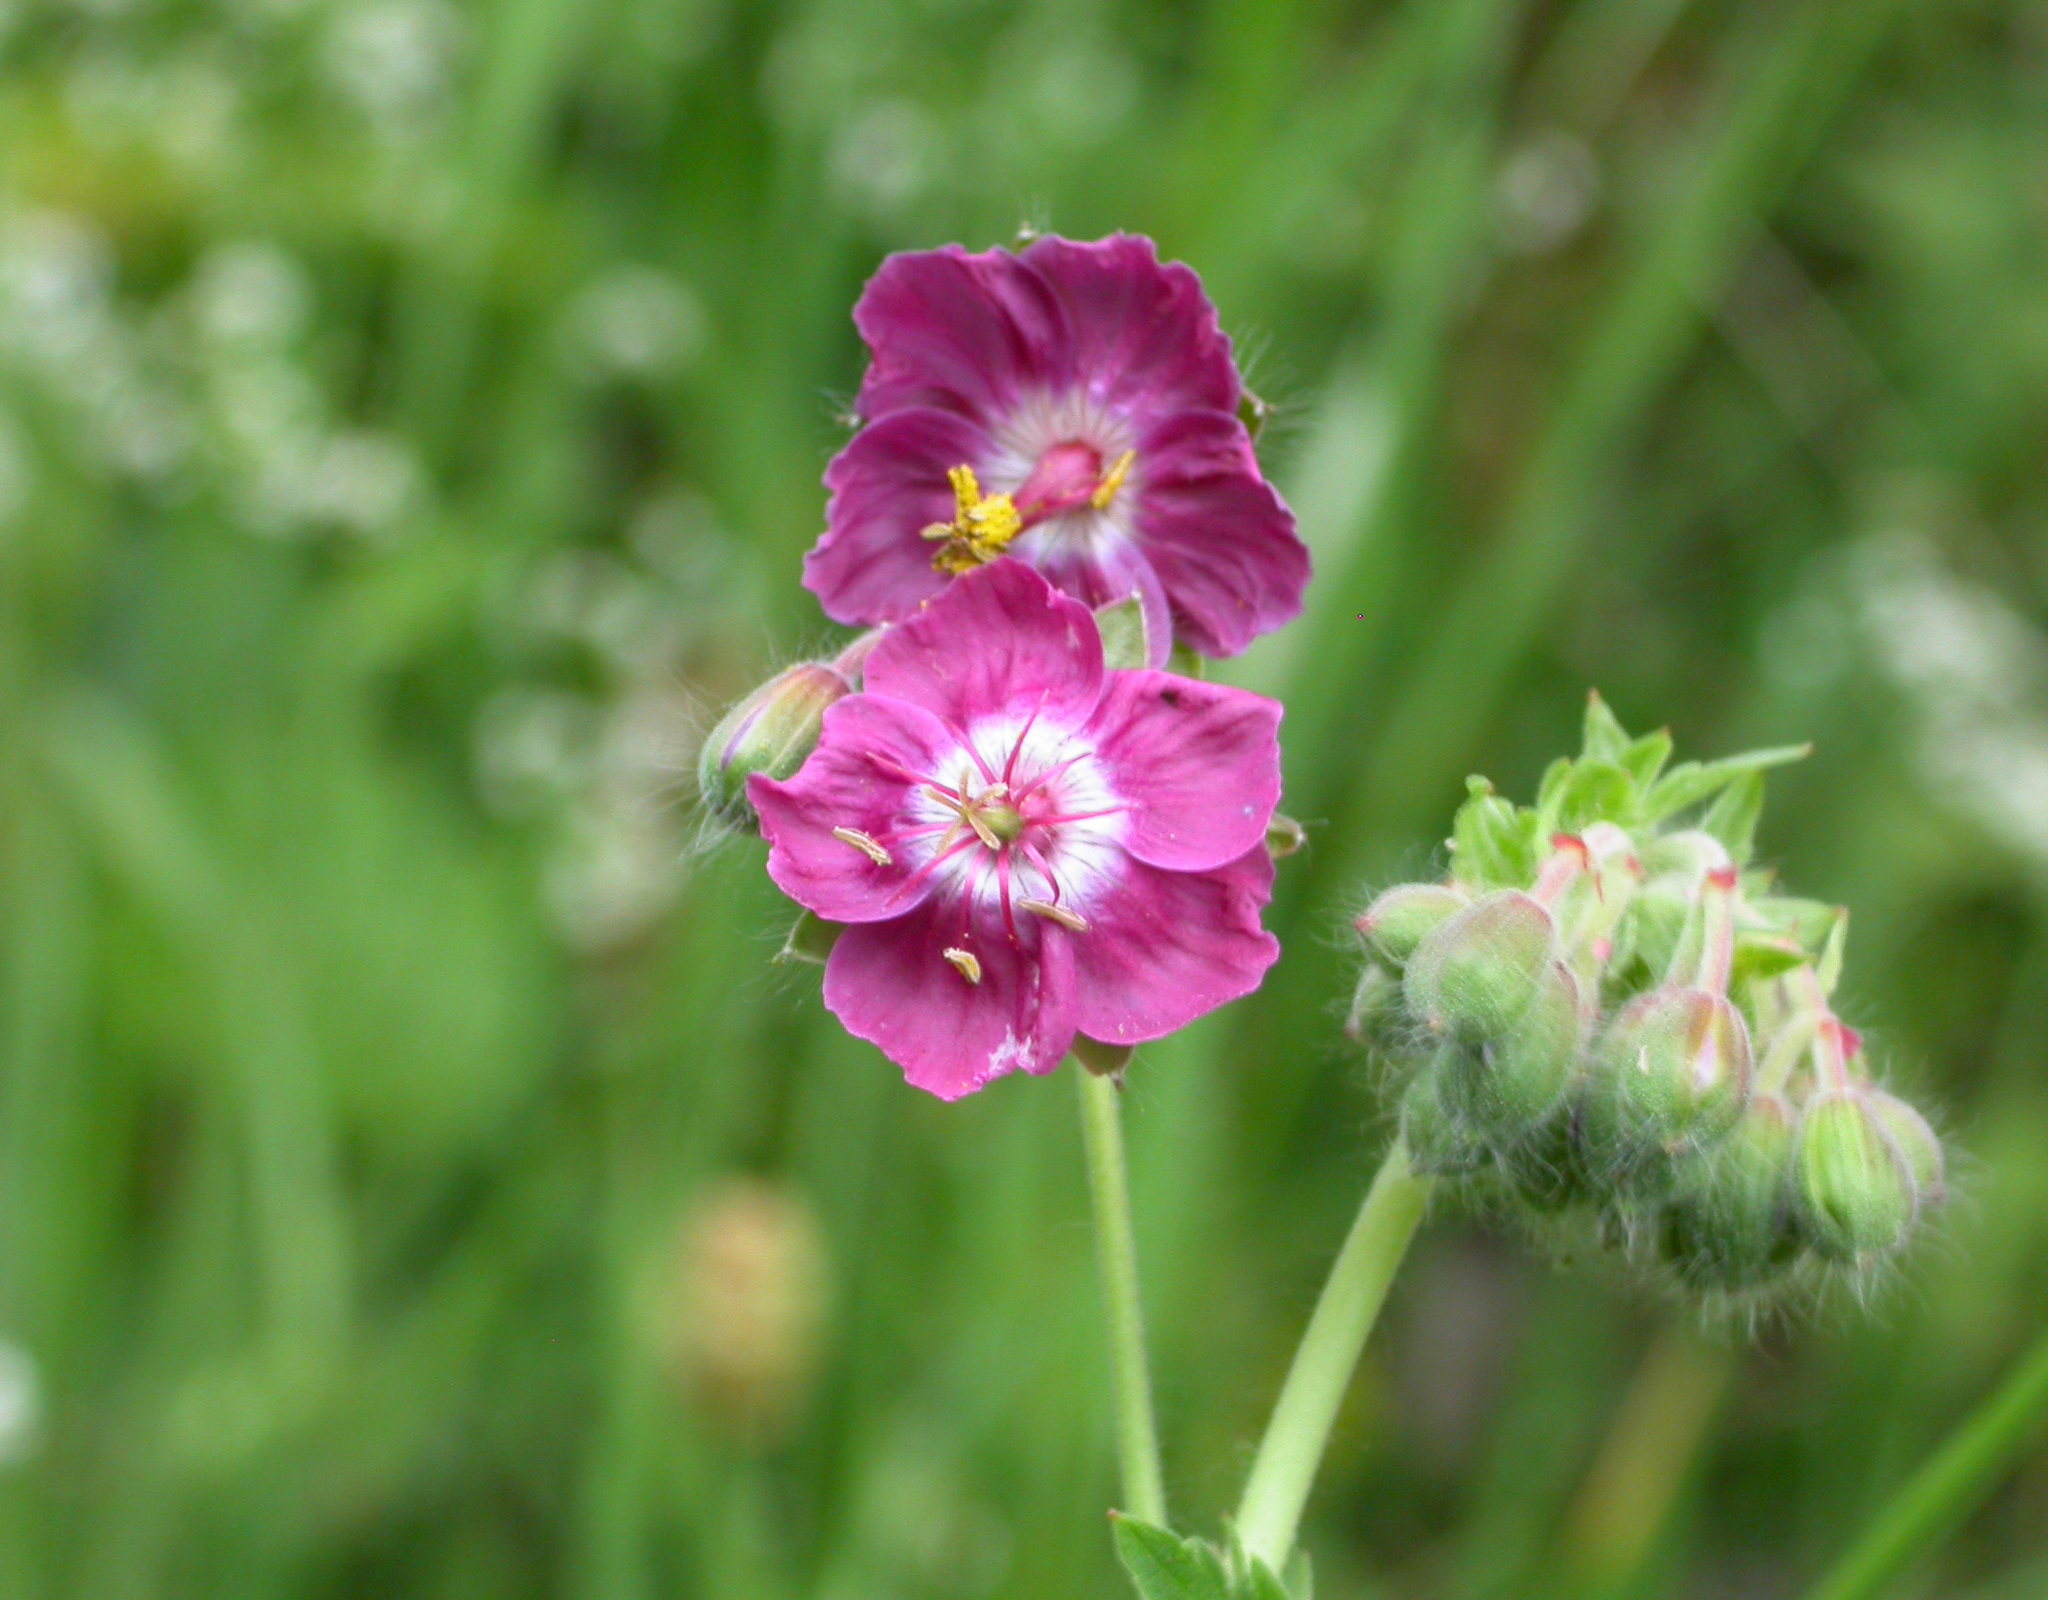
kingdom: Plantae
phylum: Tracheophyta
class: Magnoliopsida
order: Geraniales
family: Geraniaceae
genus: Geranium
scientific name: Geranium phaeum
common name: Dusky crane's-bill
